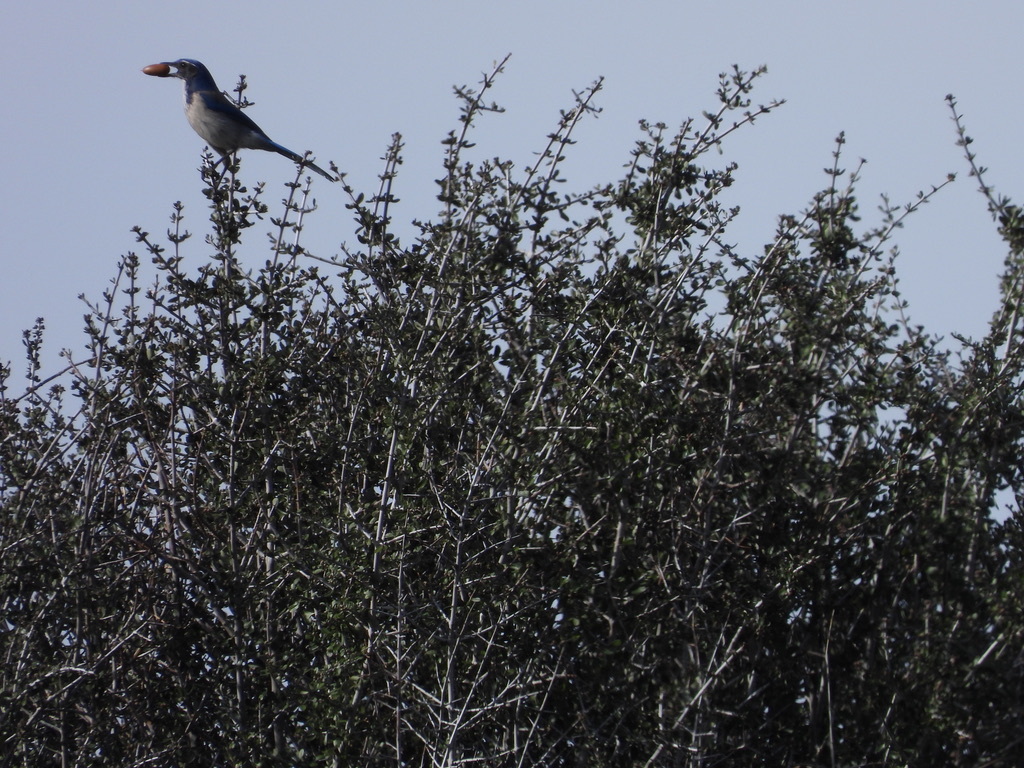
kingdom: Animalia
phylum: Chordata
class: Aves
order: Passeriformes
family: Corvidae
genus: Aphelocoma
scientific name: Aphelocoma californica
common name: California scrub-jay
